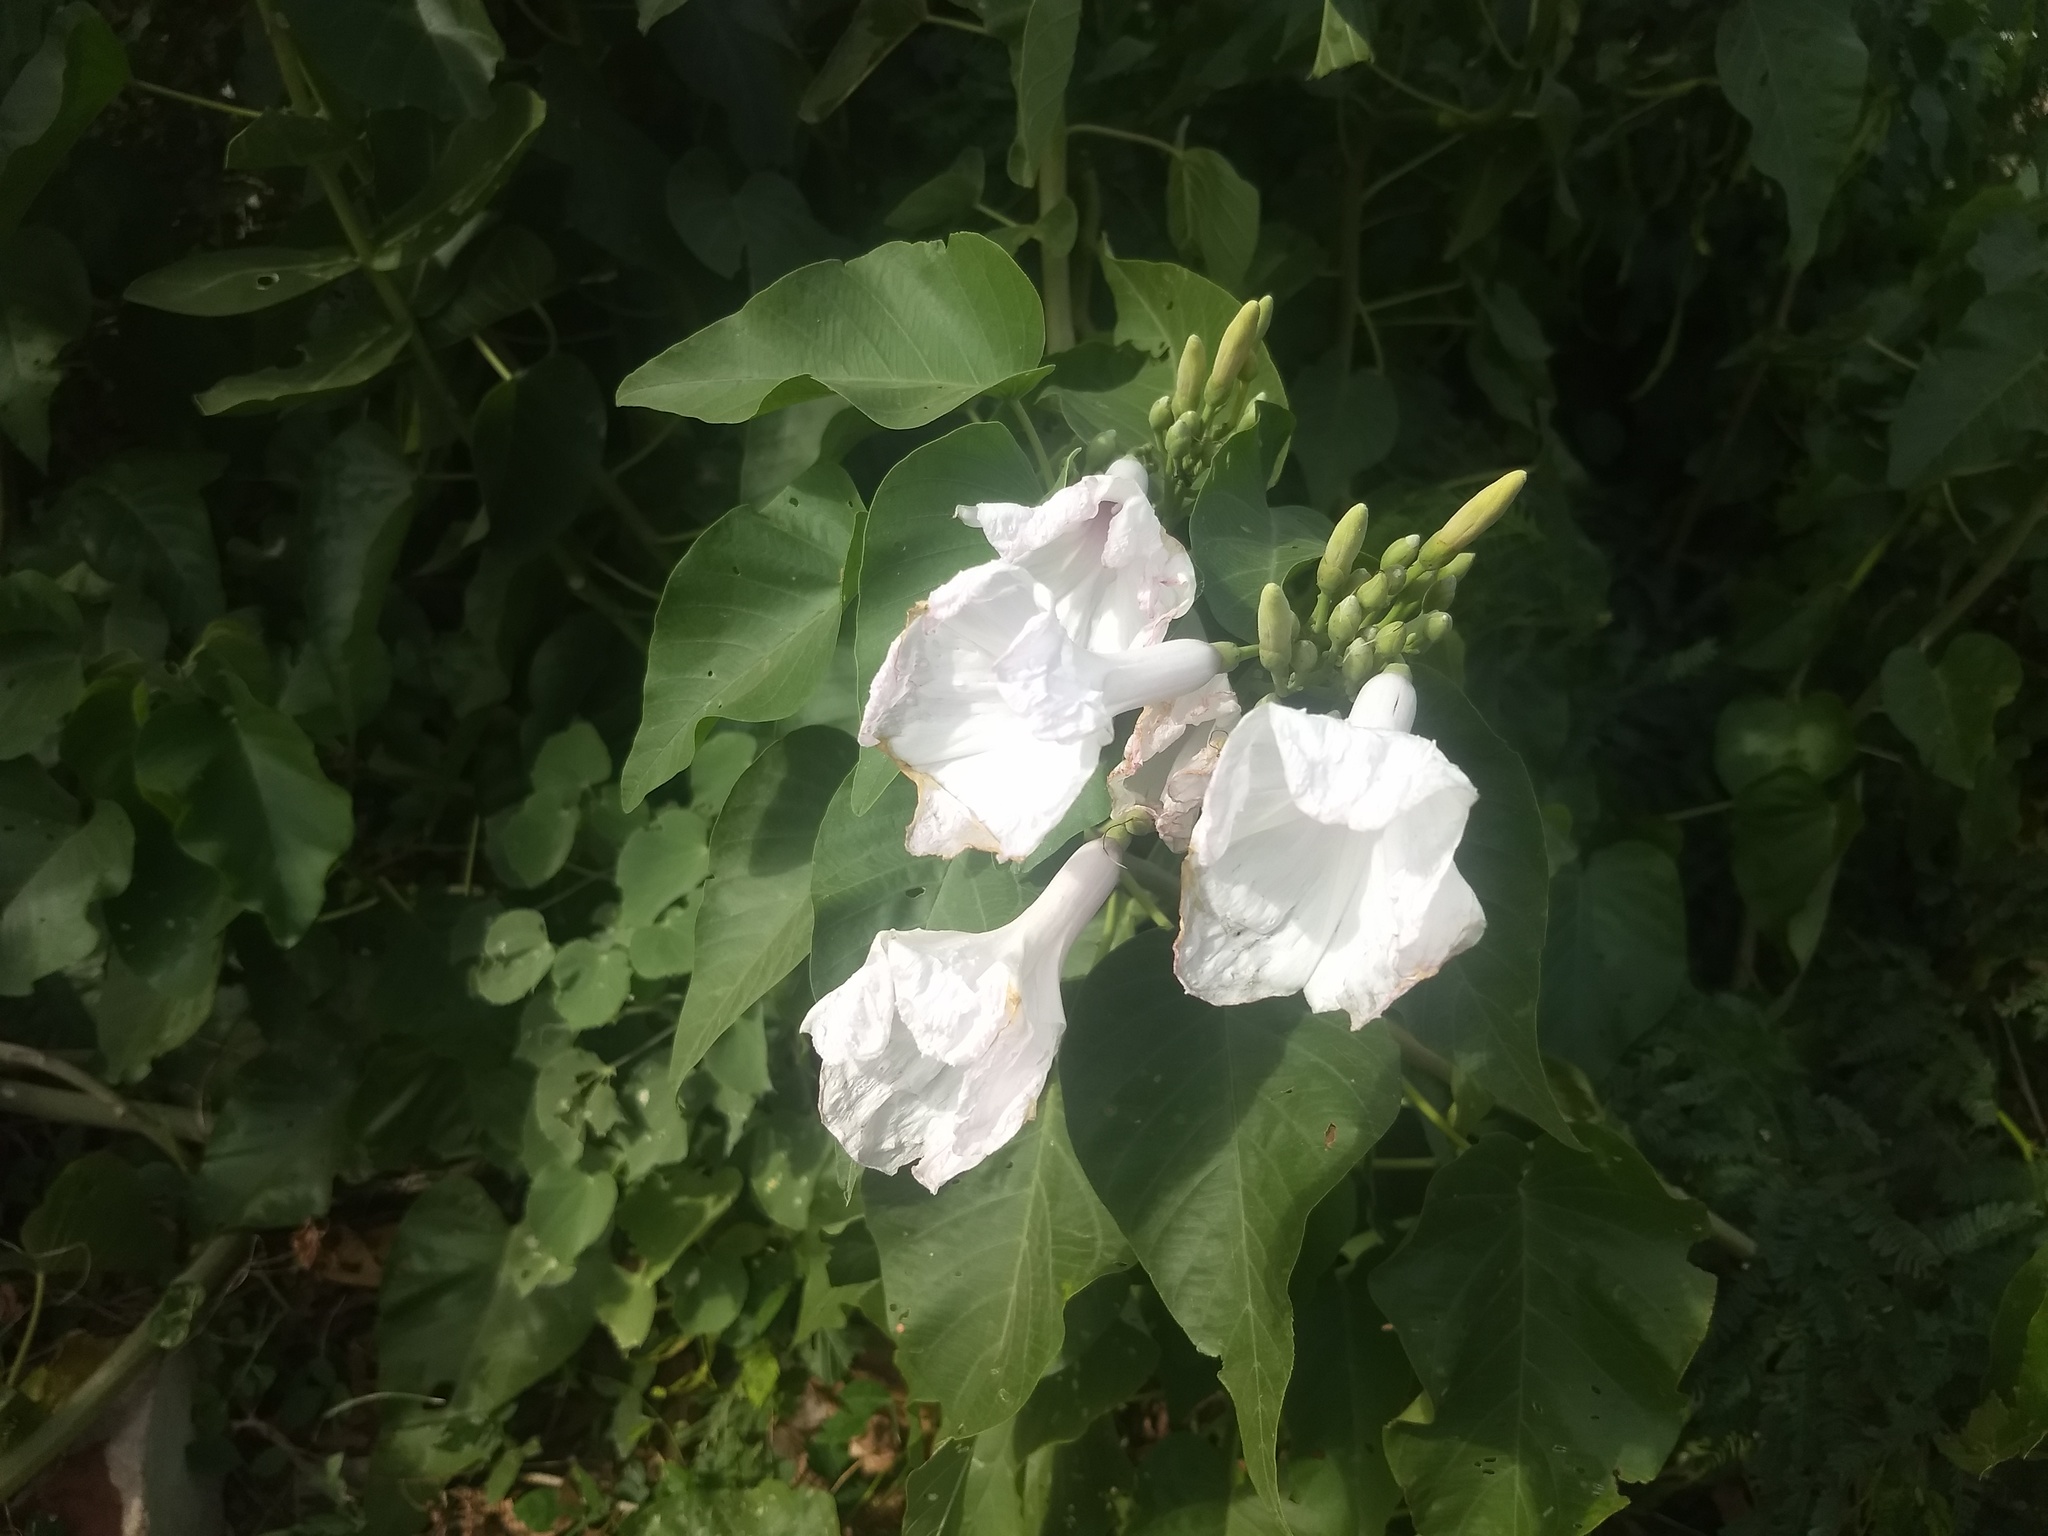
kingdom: Plantae
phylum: Tracheophyta
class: Magnoliopsida
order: Solanales
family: Convolvulaceae
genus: Ipomoea
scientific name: Ipomoea carnea
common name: Morning-glory
